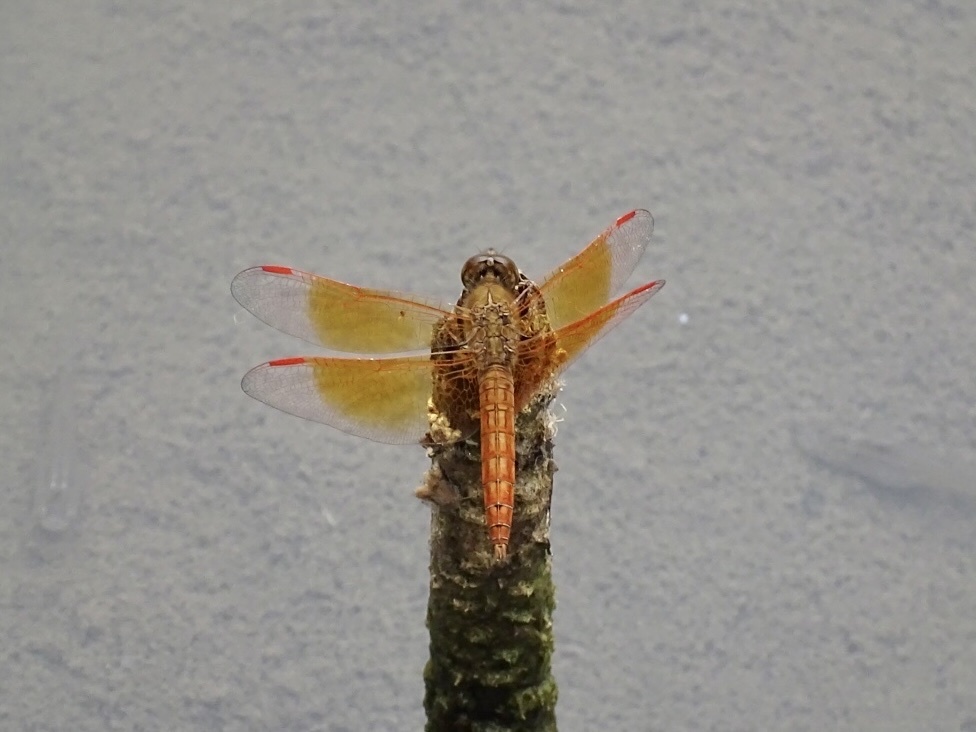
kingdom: Animalia
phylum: Arthropoda
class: Insecta
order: Odonata
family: Libellulidae
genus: Brachythemis
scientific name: Brachythemis contaminata
